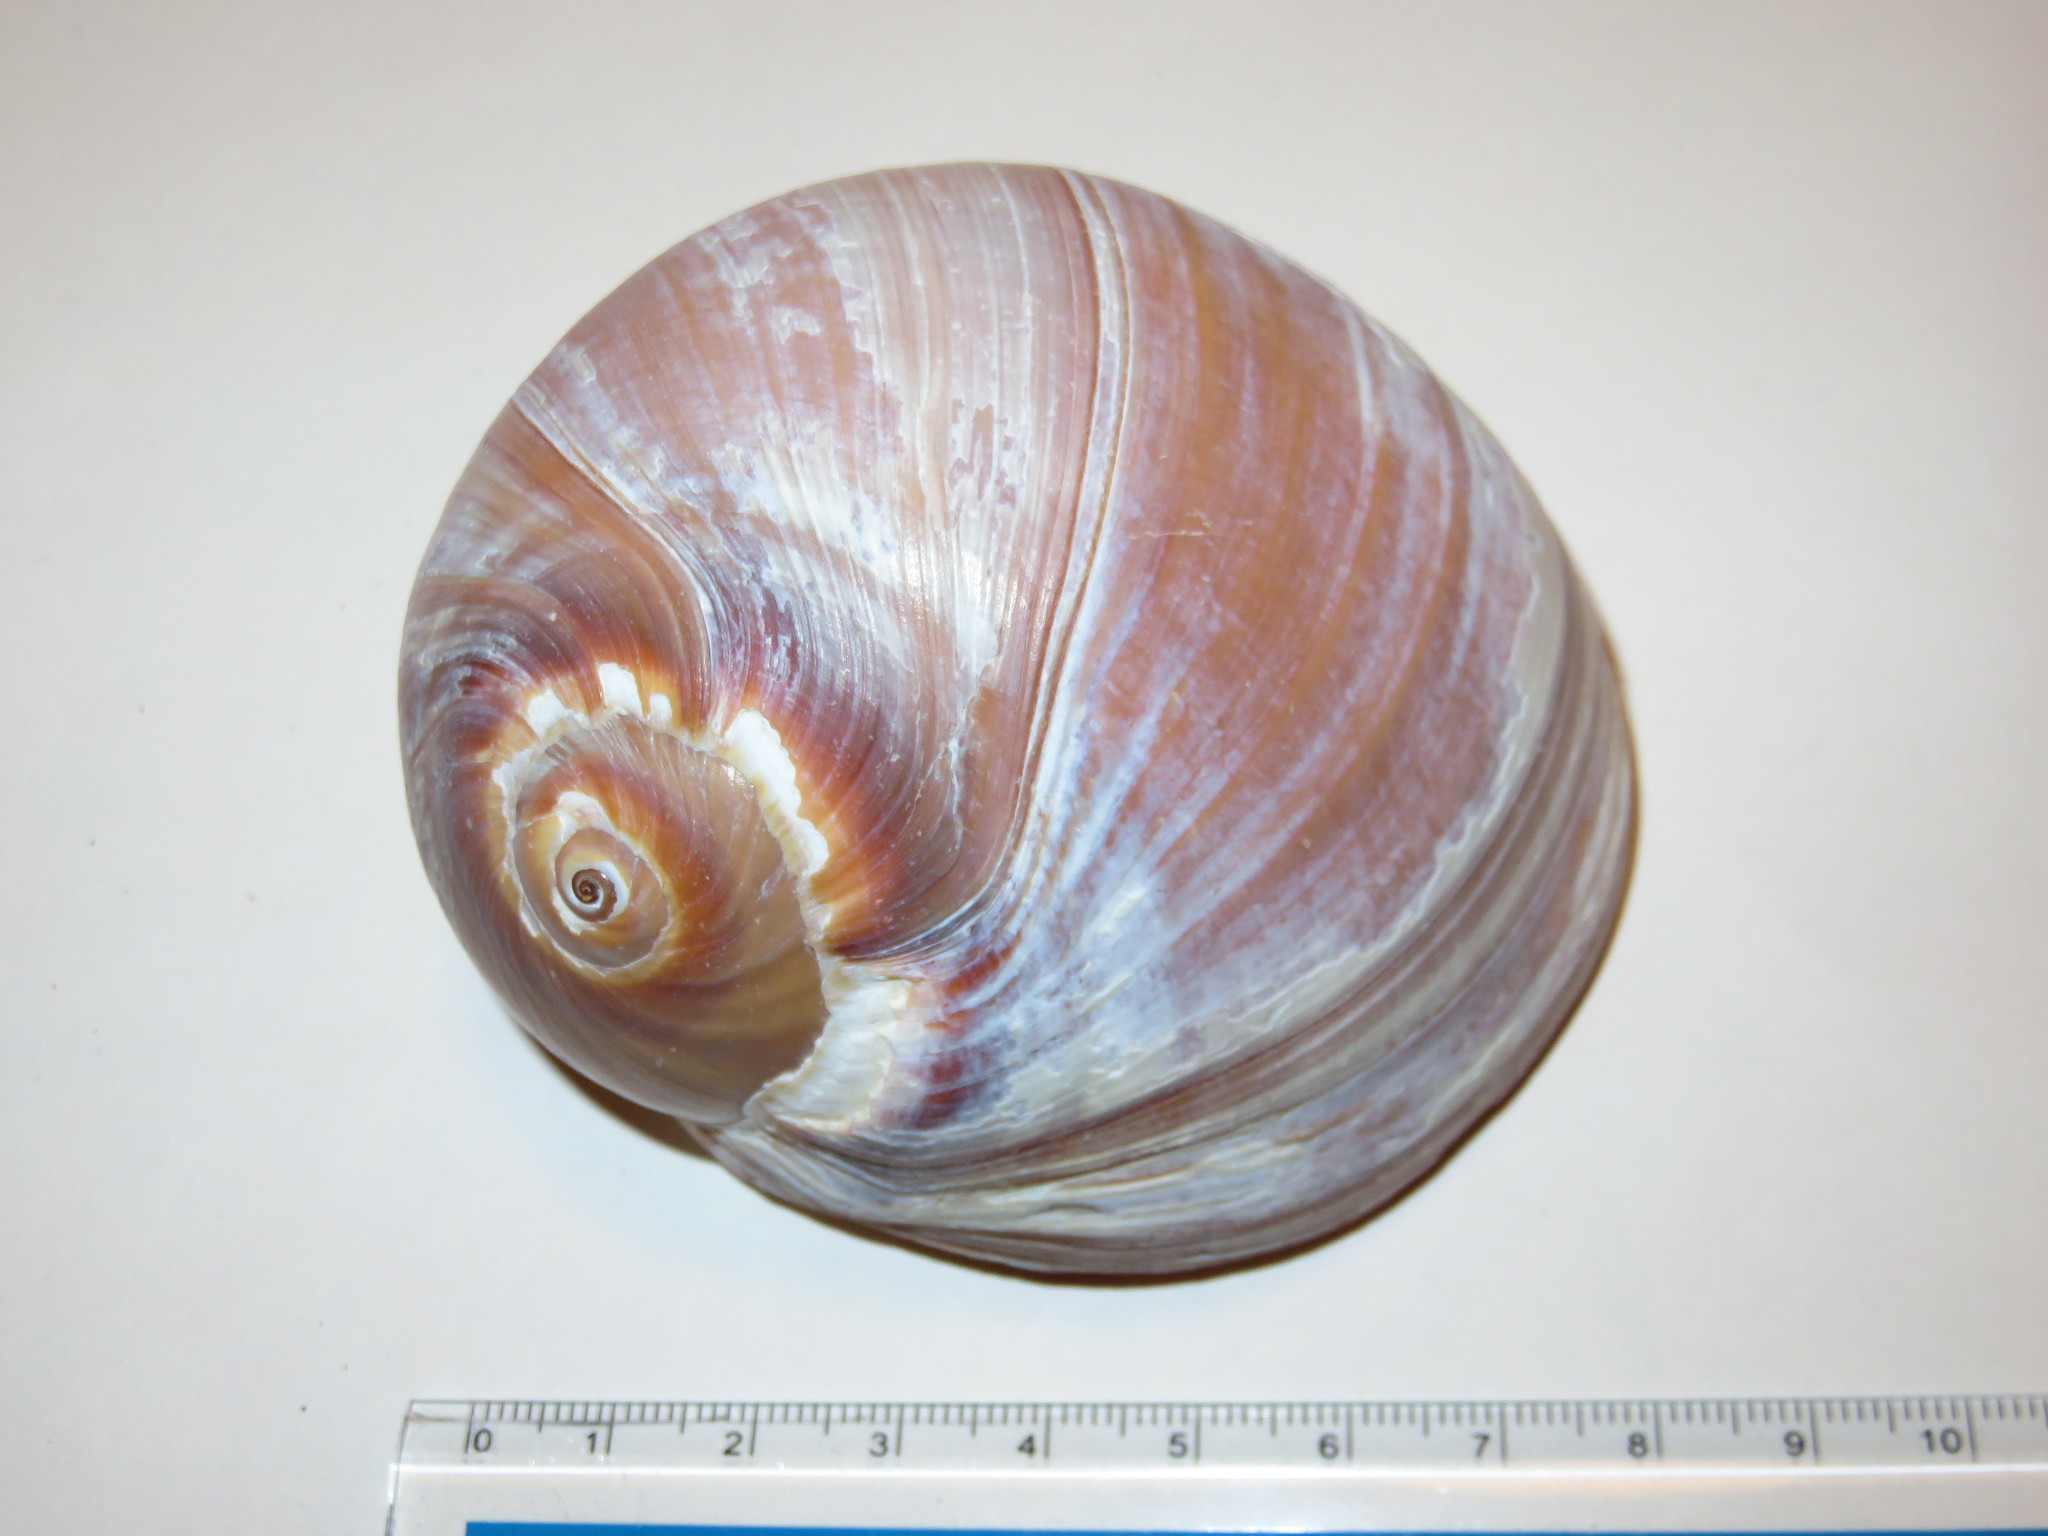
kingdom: Animalia
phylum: Mollusca
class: Gastropoda
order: Littorinimorpha
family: Naticidae
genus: Neverita
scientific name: Neverita didyma
